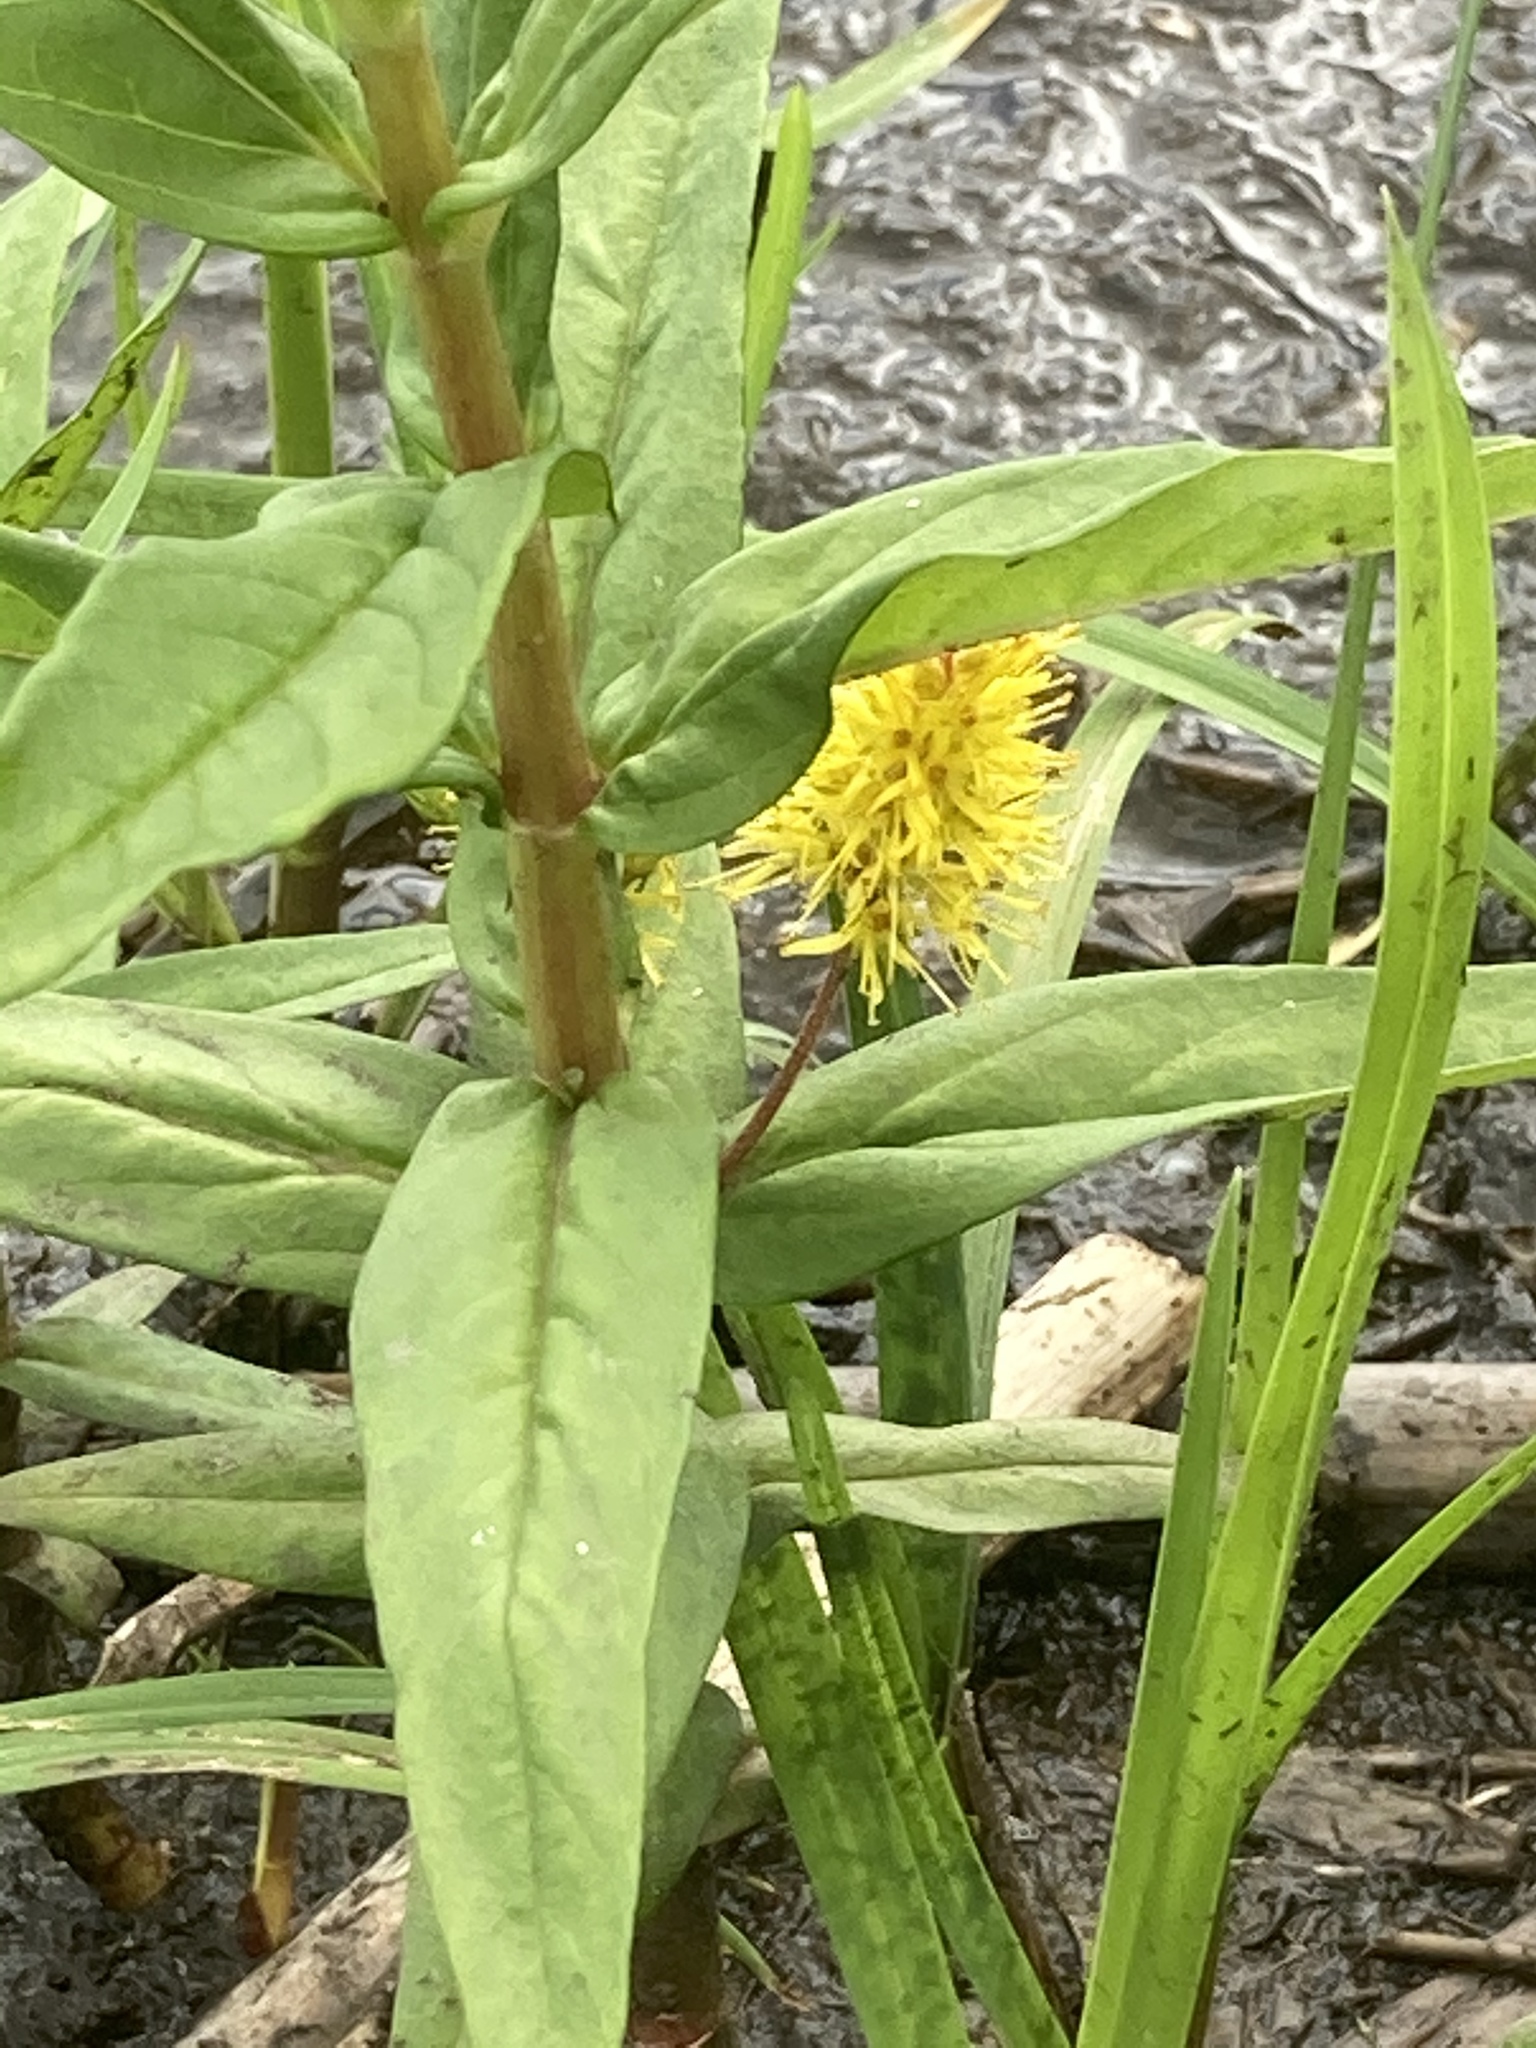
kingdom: Plantae
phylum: Tracheophyta
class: Magnoliopsida
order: Ericales
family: Primulaceae
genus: Lysimachia
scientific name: Lysimachia thyrsiflora
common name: Tufted loosestrife
